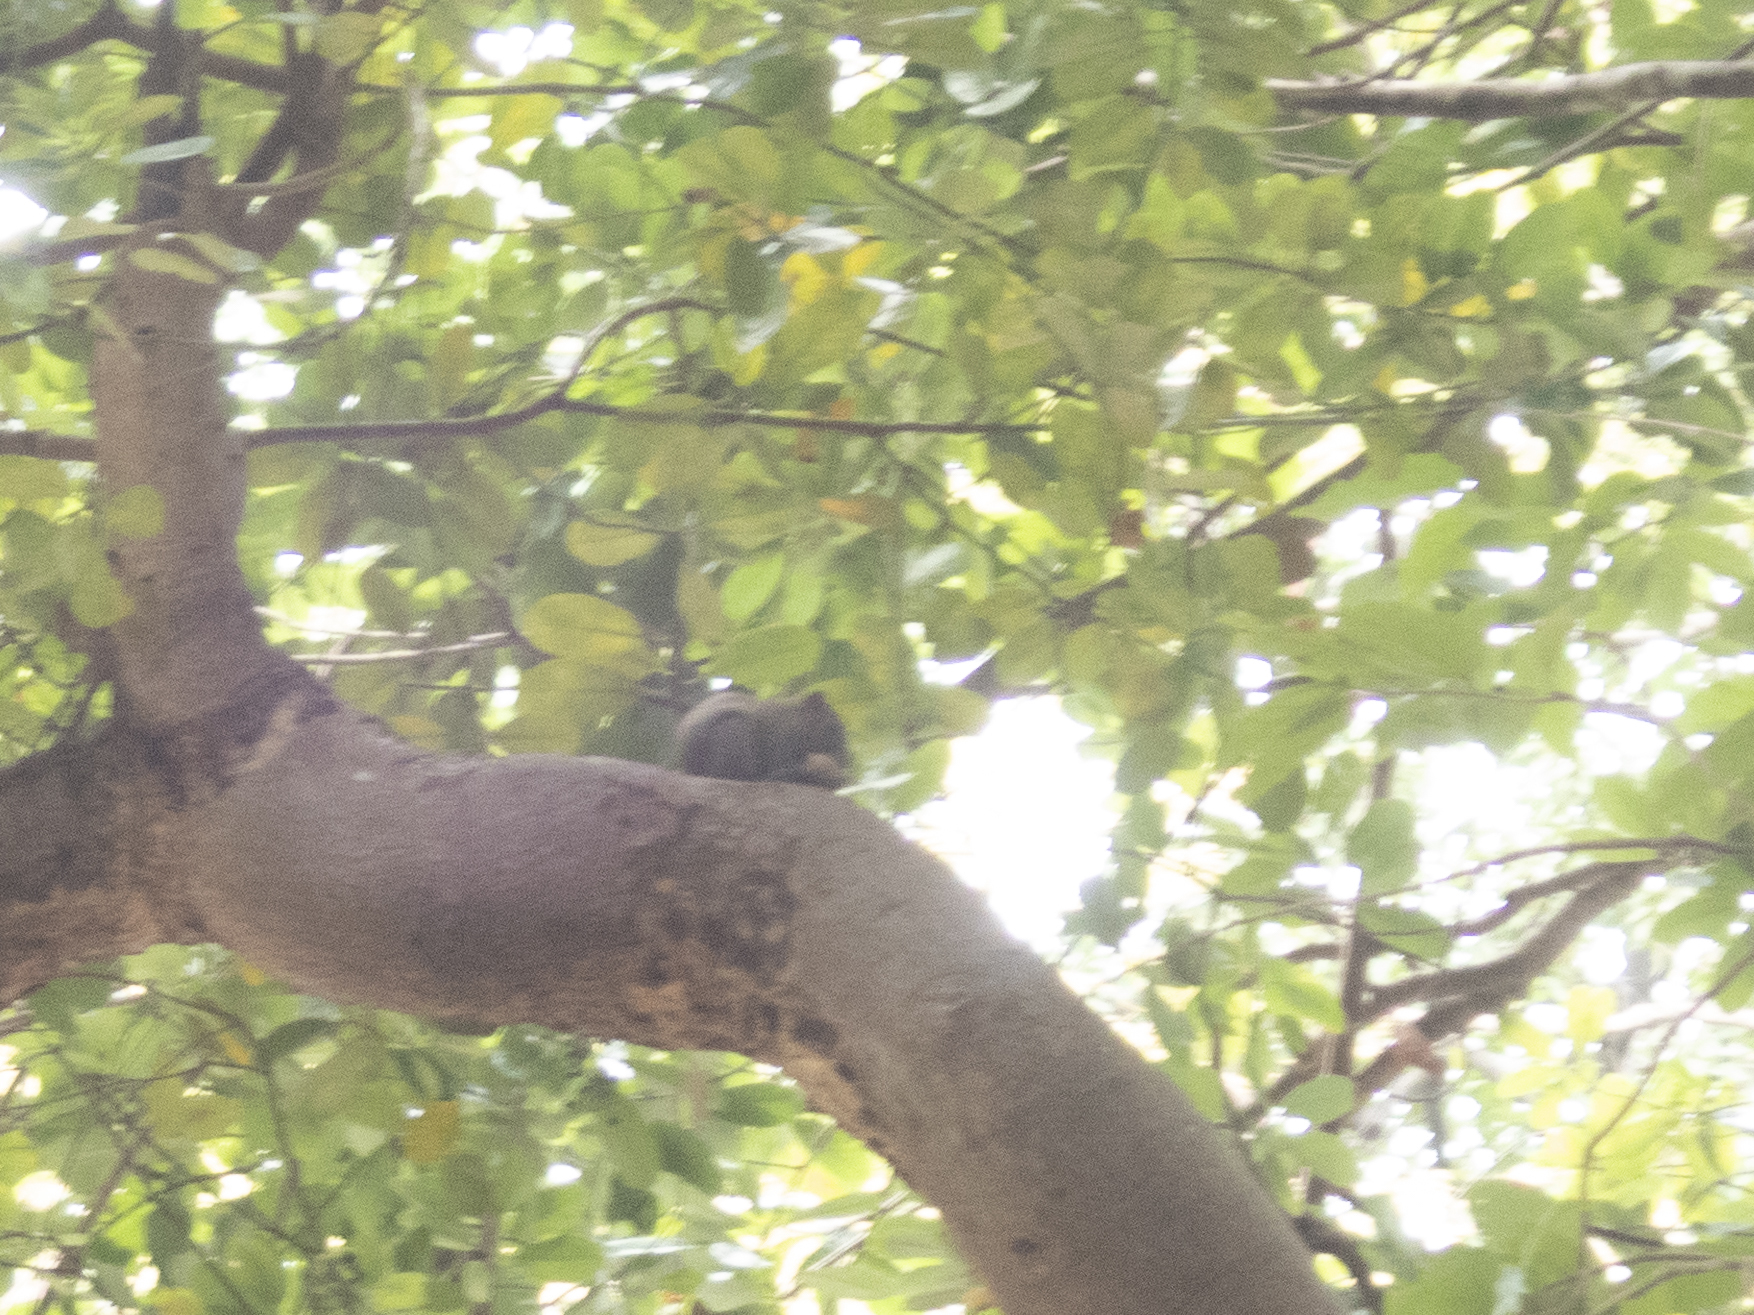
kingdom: Animalia
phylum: Chordata
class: Mammalia
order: Rodentia
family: Sciuridae
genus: Callosciurus
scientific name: Callosciurus erythraeus
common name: Pallas's squirrel
